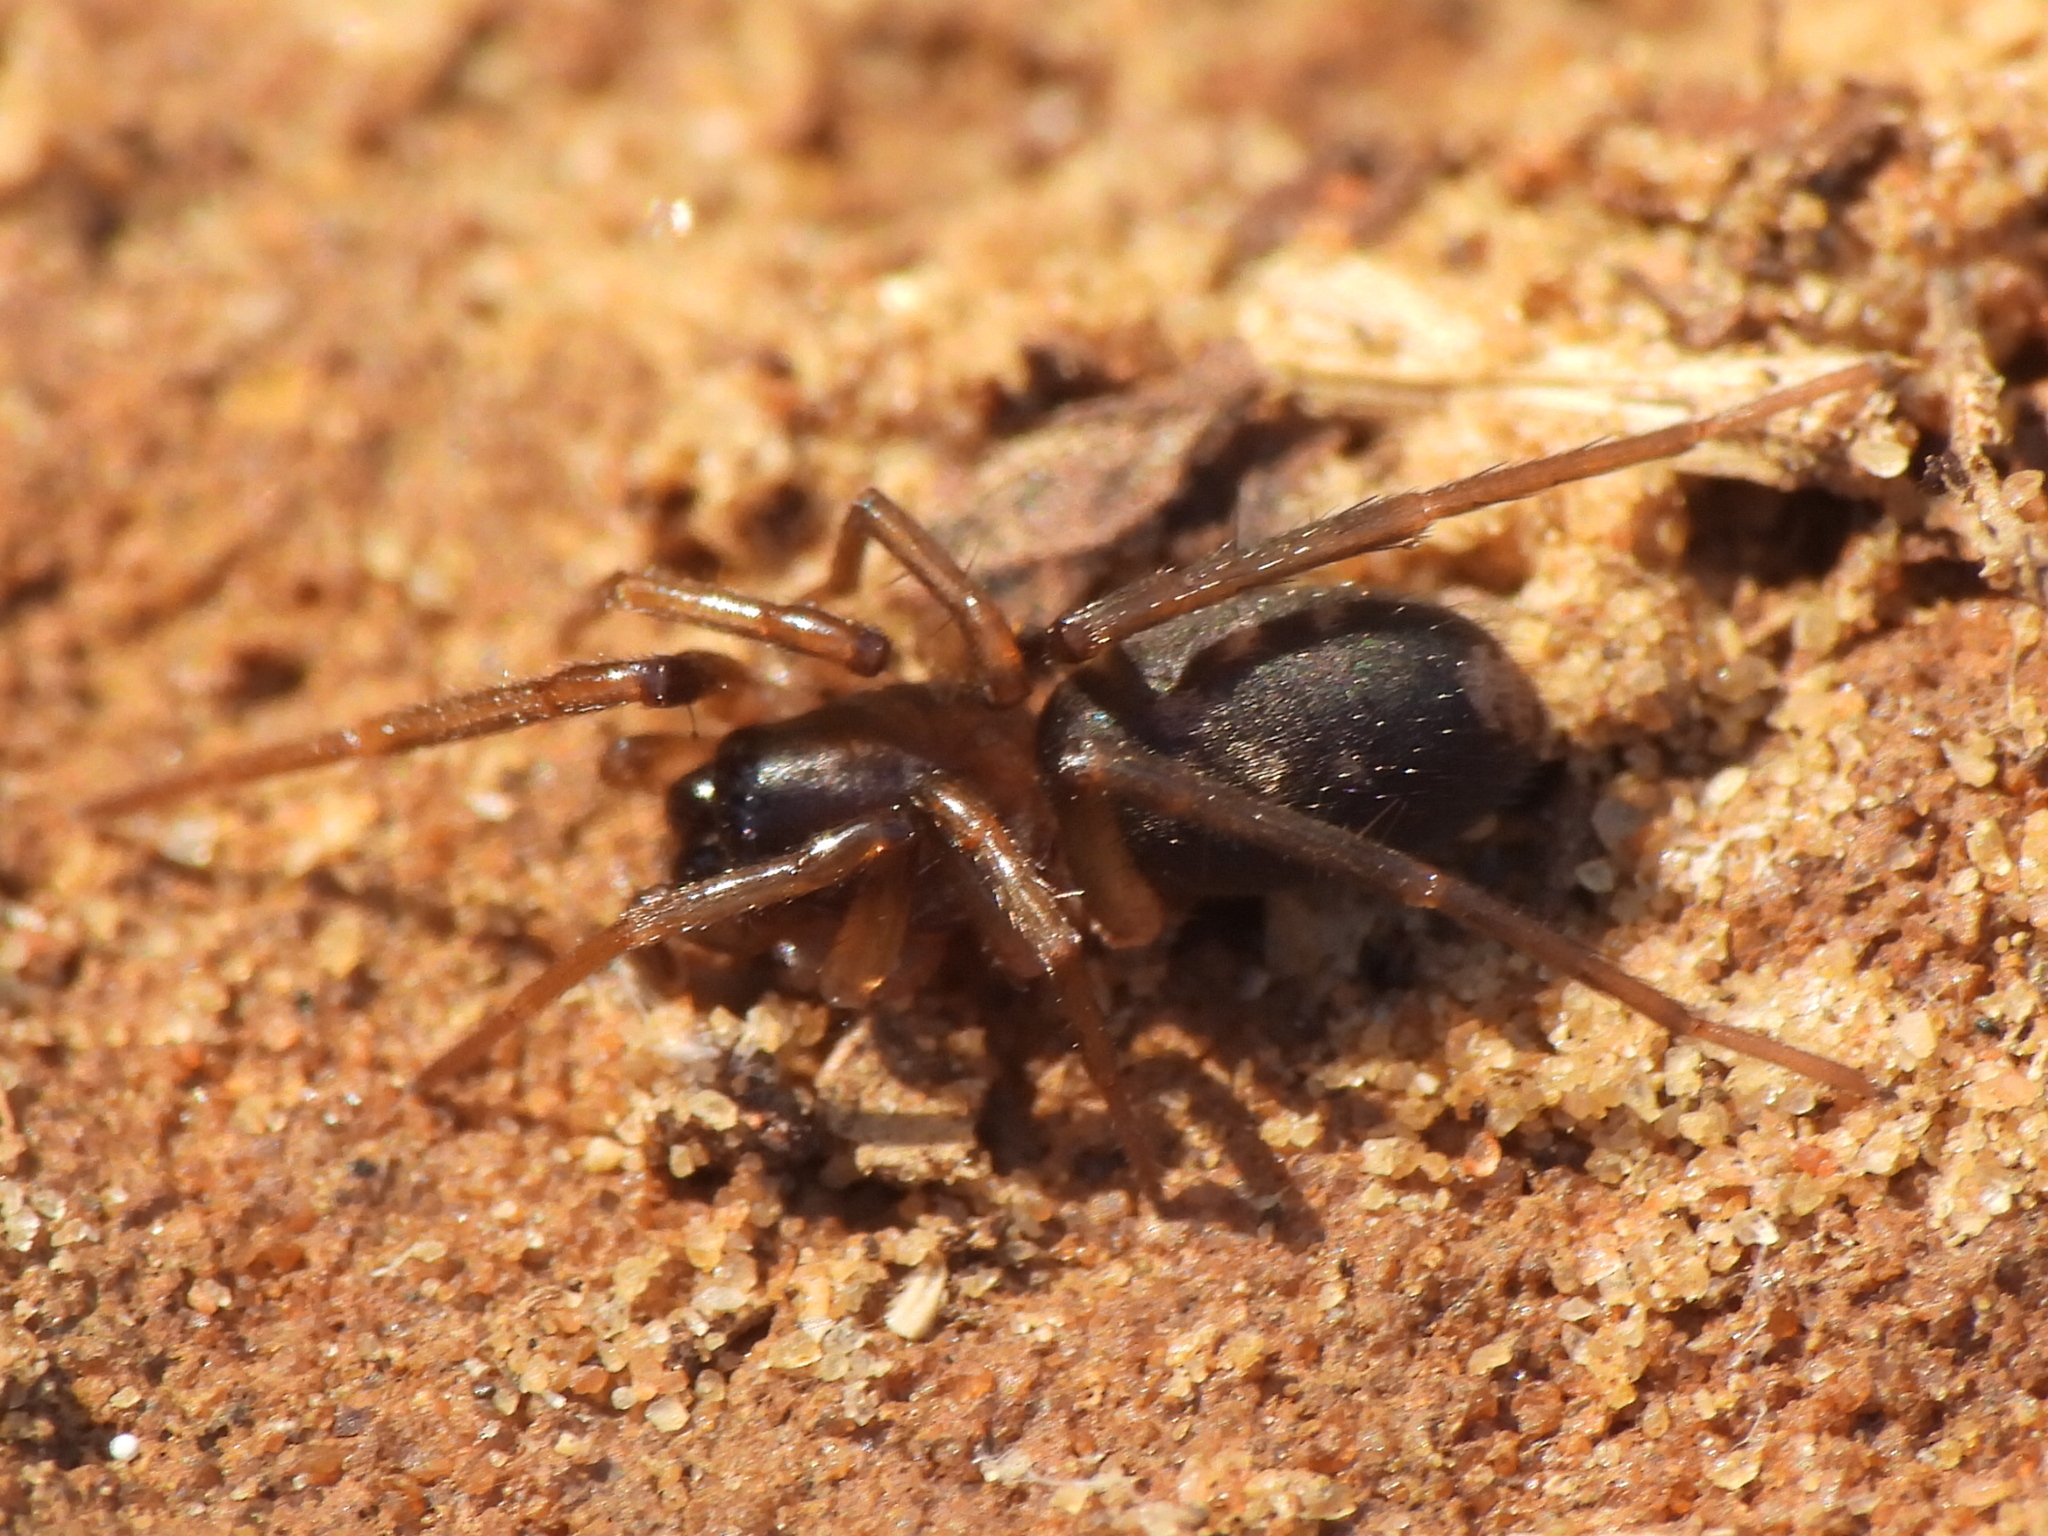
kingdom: Animalia
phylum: Arthropoda
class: Arachnida
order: Araneae
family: Corinnidae
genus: Falconina
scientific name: Falconina gracilis
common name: Antmimic spider
